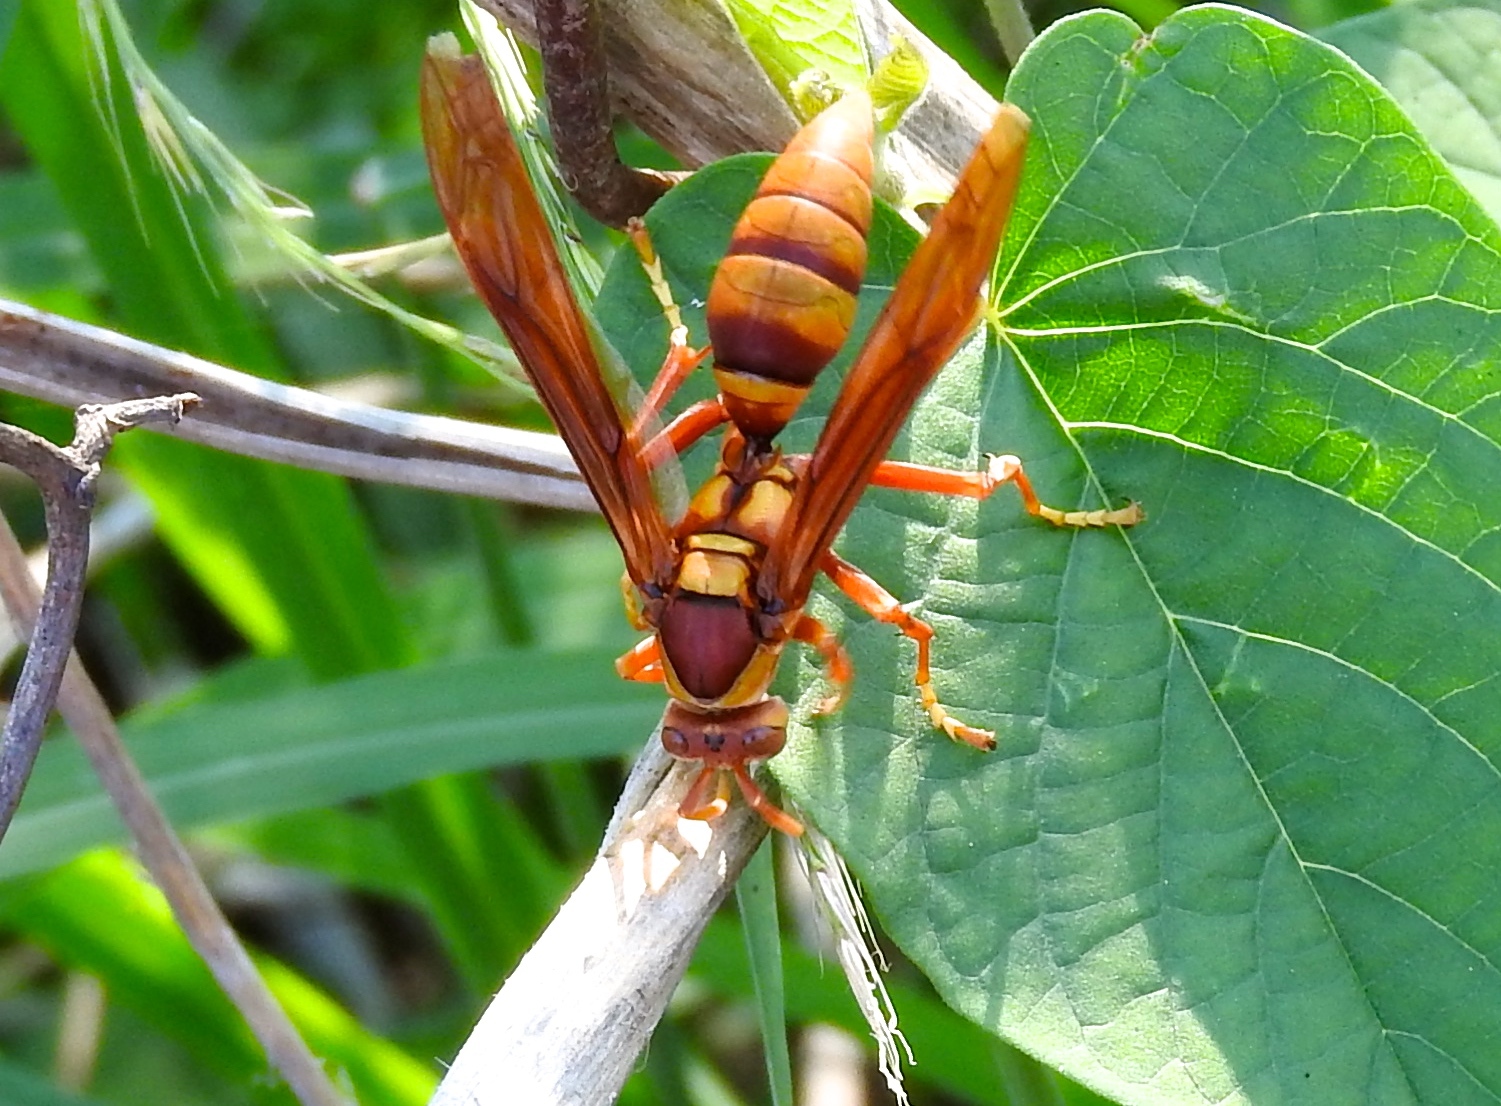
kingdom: Animalia
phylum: Arthropoda
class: Insecta
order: Hymenoptera
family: Eumenidae
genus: Polistes
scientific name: Polistes
